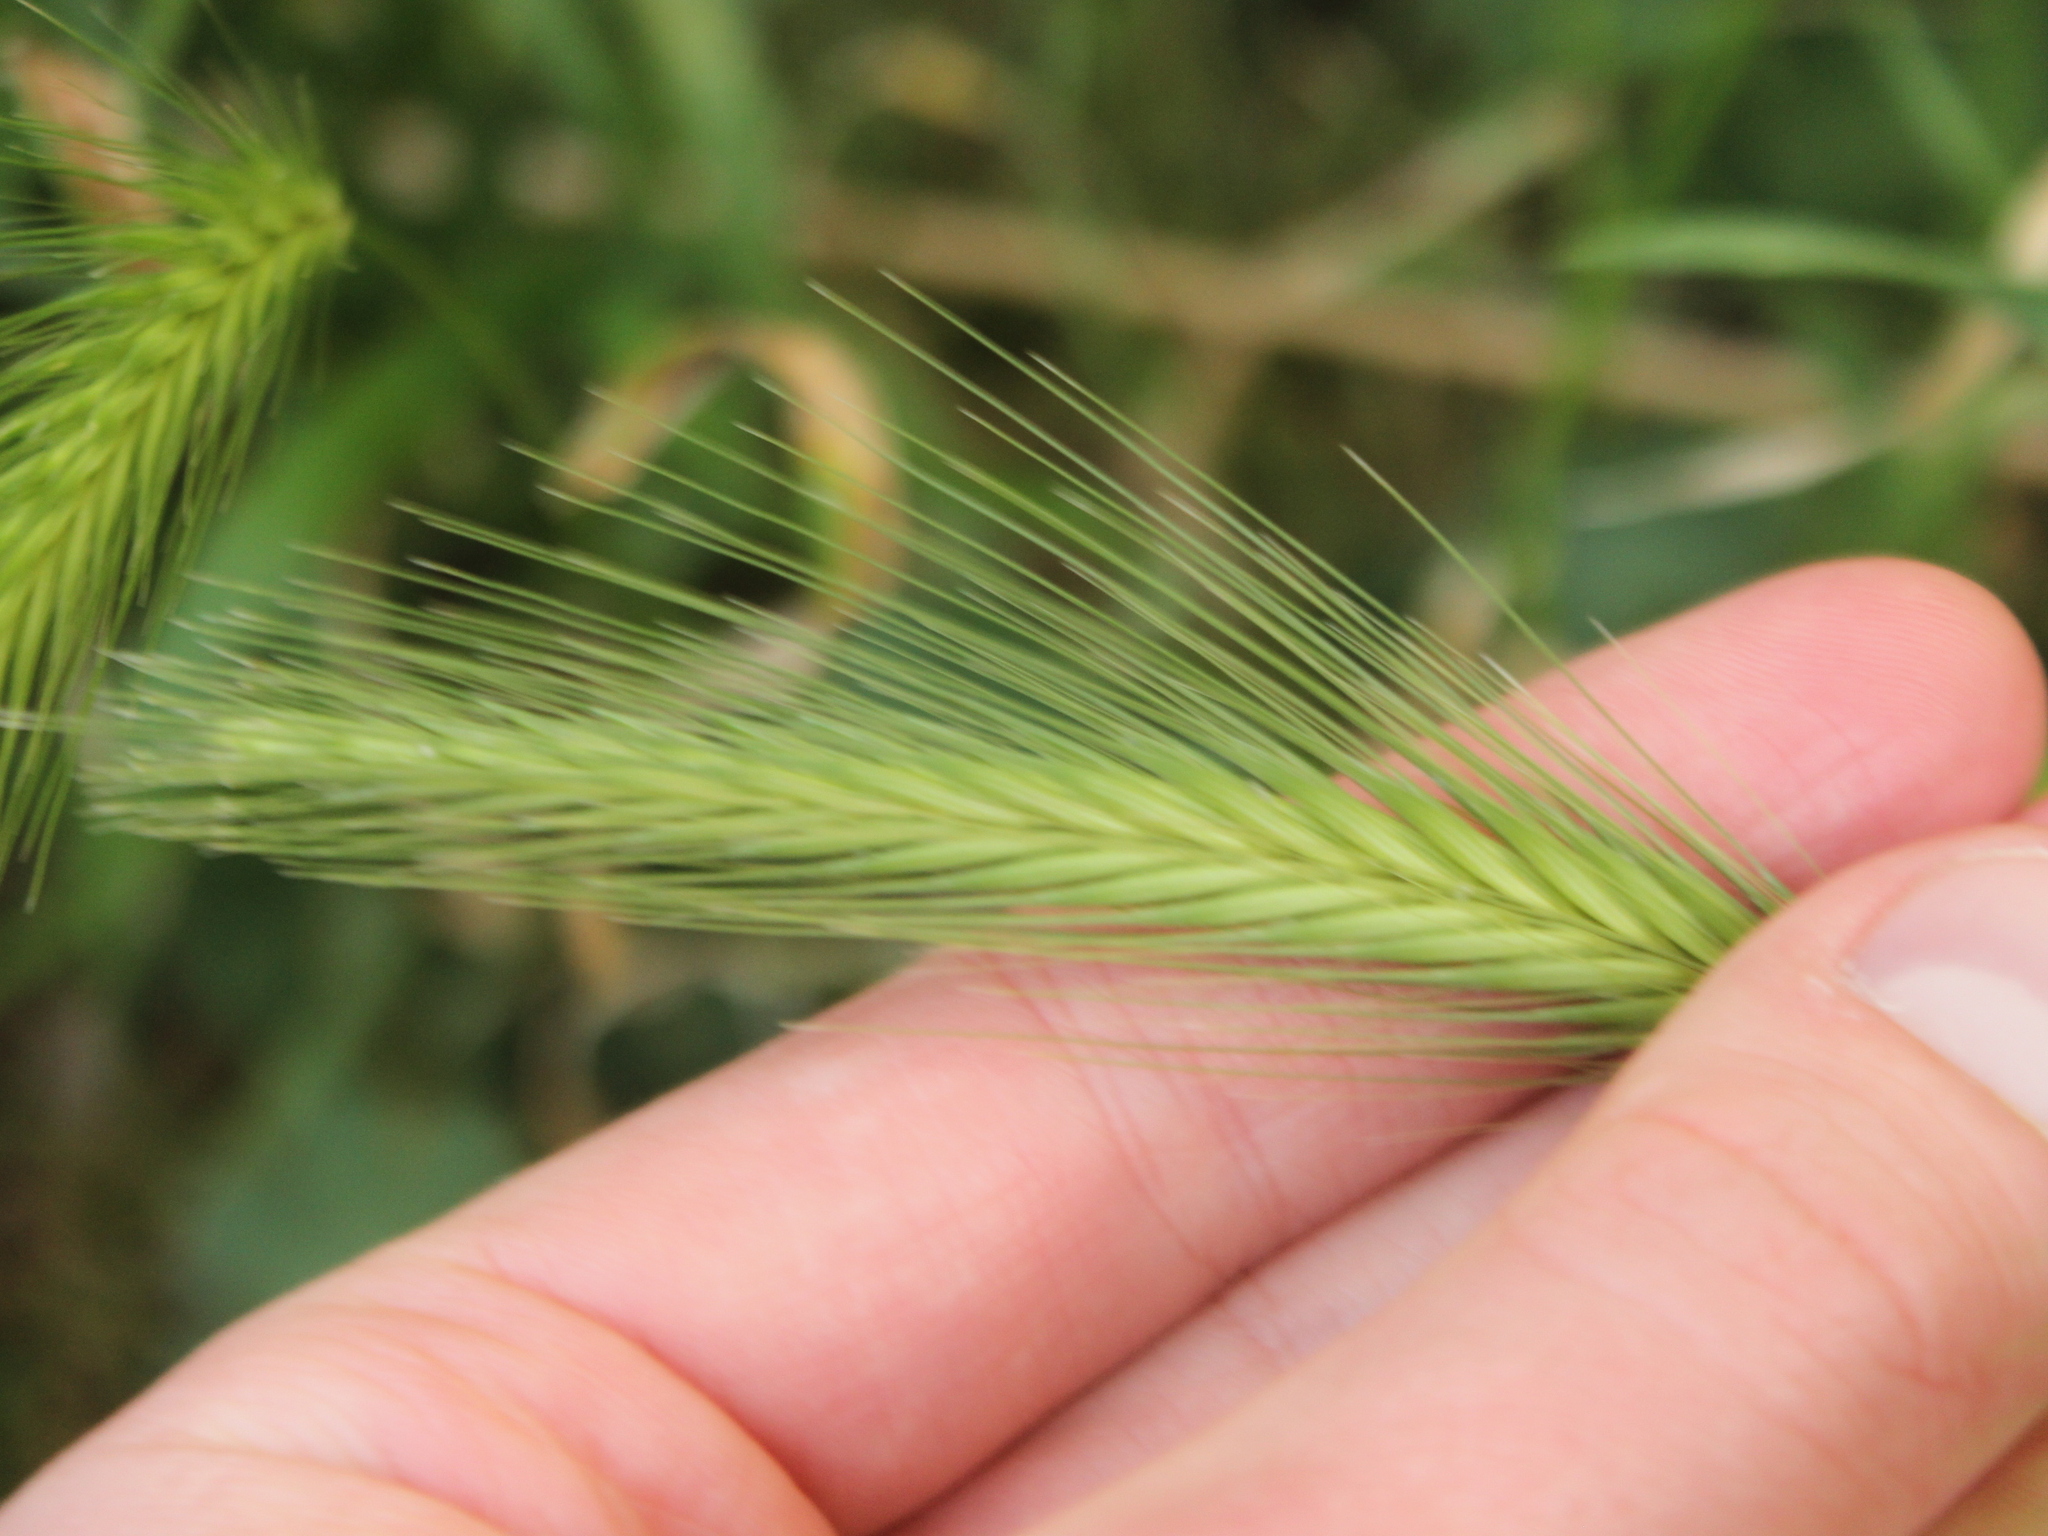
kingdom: Plantae
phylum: Tracheophyta
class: Liliopsida
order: Poales
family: Poaceae
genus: Hordeum
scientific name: Hordeum murinum
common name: Wall barley
